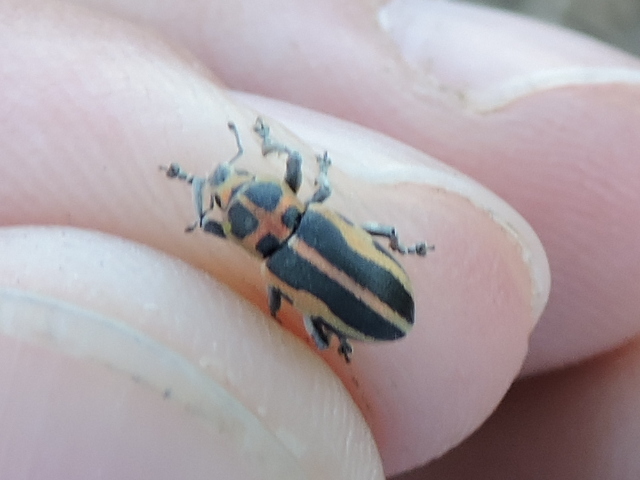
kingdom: Animalia
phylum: Arthropoda
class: Insecta
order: Coleoptera
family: Curculionidae
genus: Eudiagogus
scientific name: Eudiagogus pulcher
